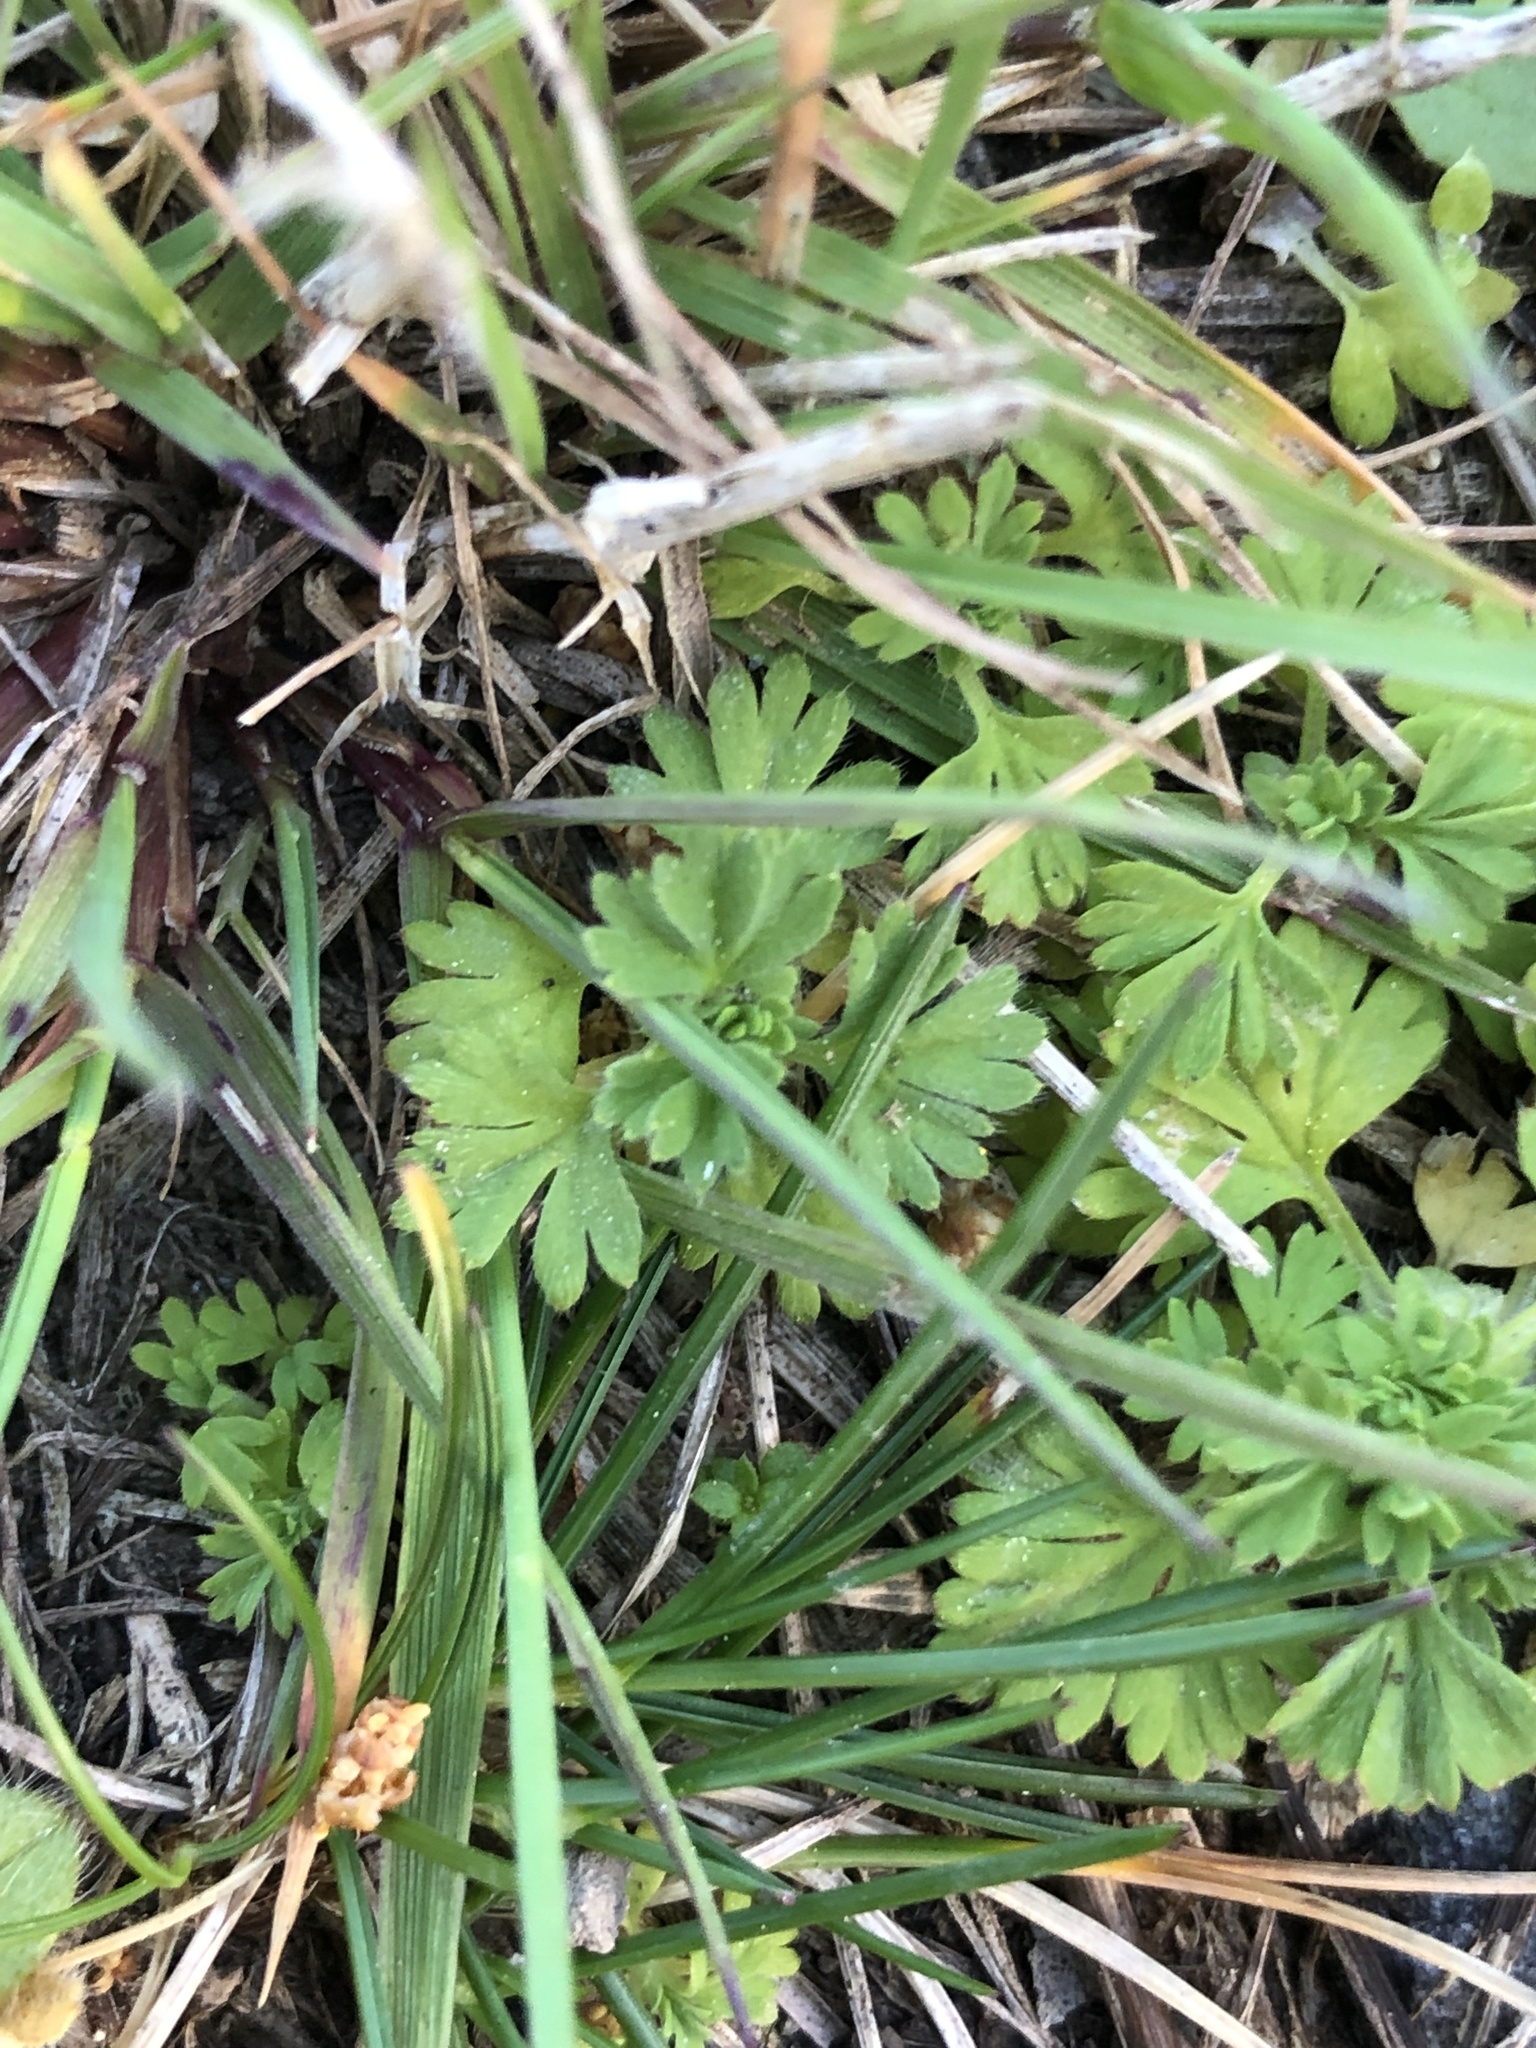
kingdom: Plantae
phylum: Tracheophyta
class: Magnoliopsida
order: Rosales
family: Rosaceae
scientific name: Rosaceae
